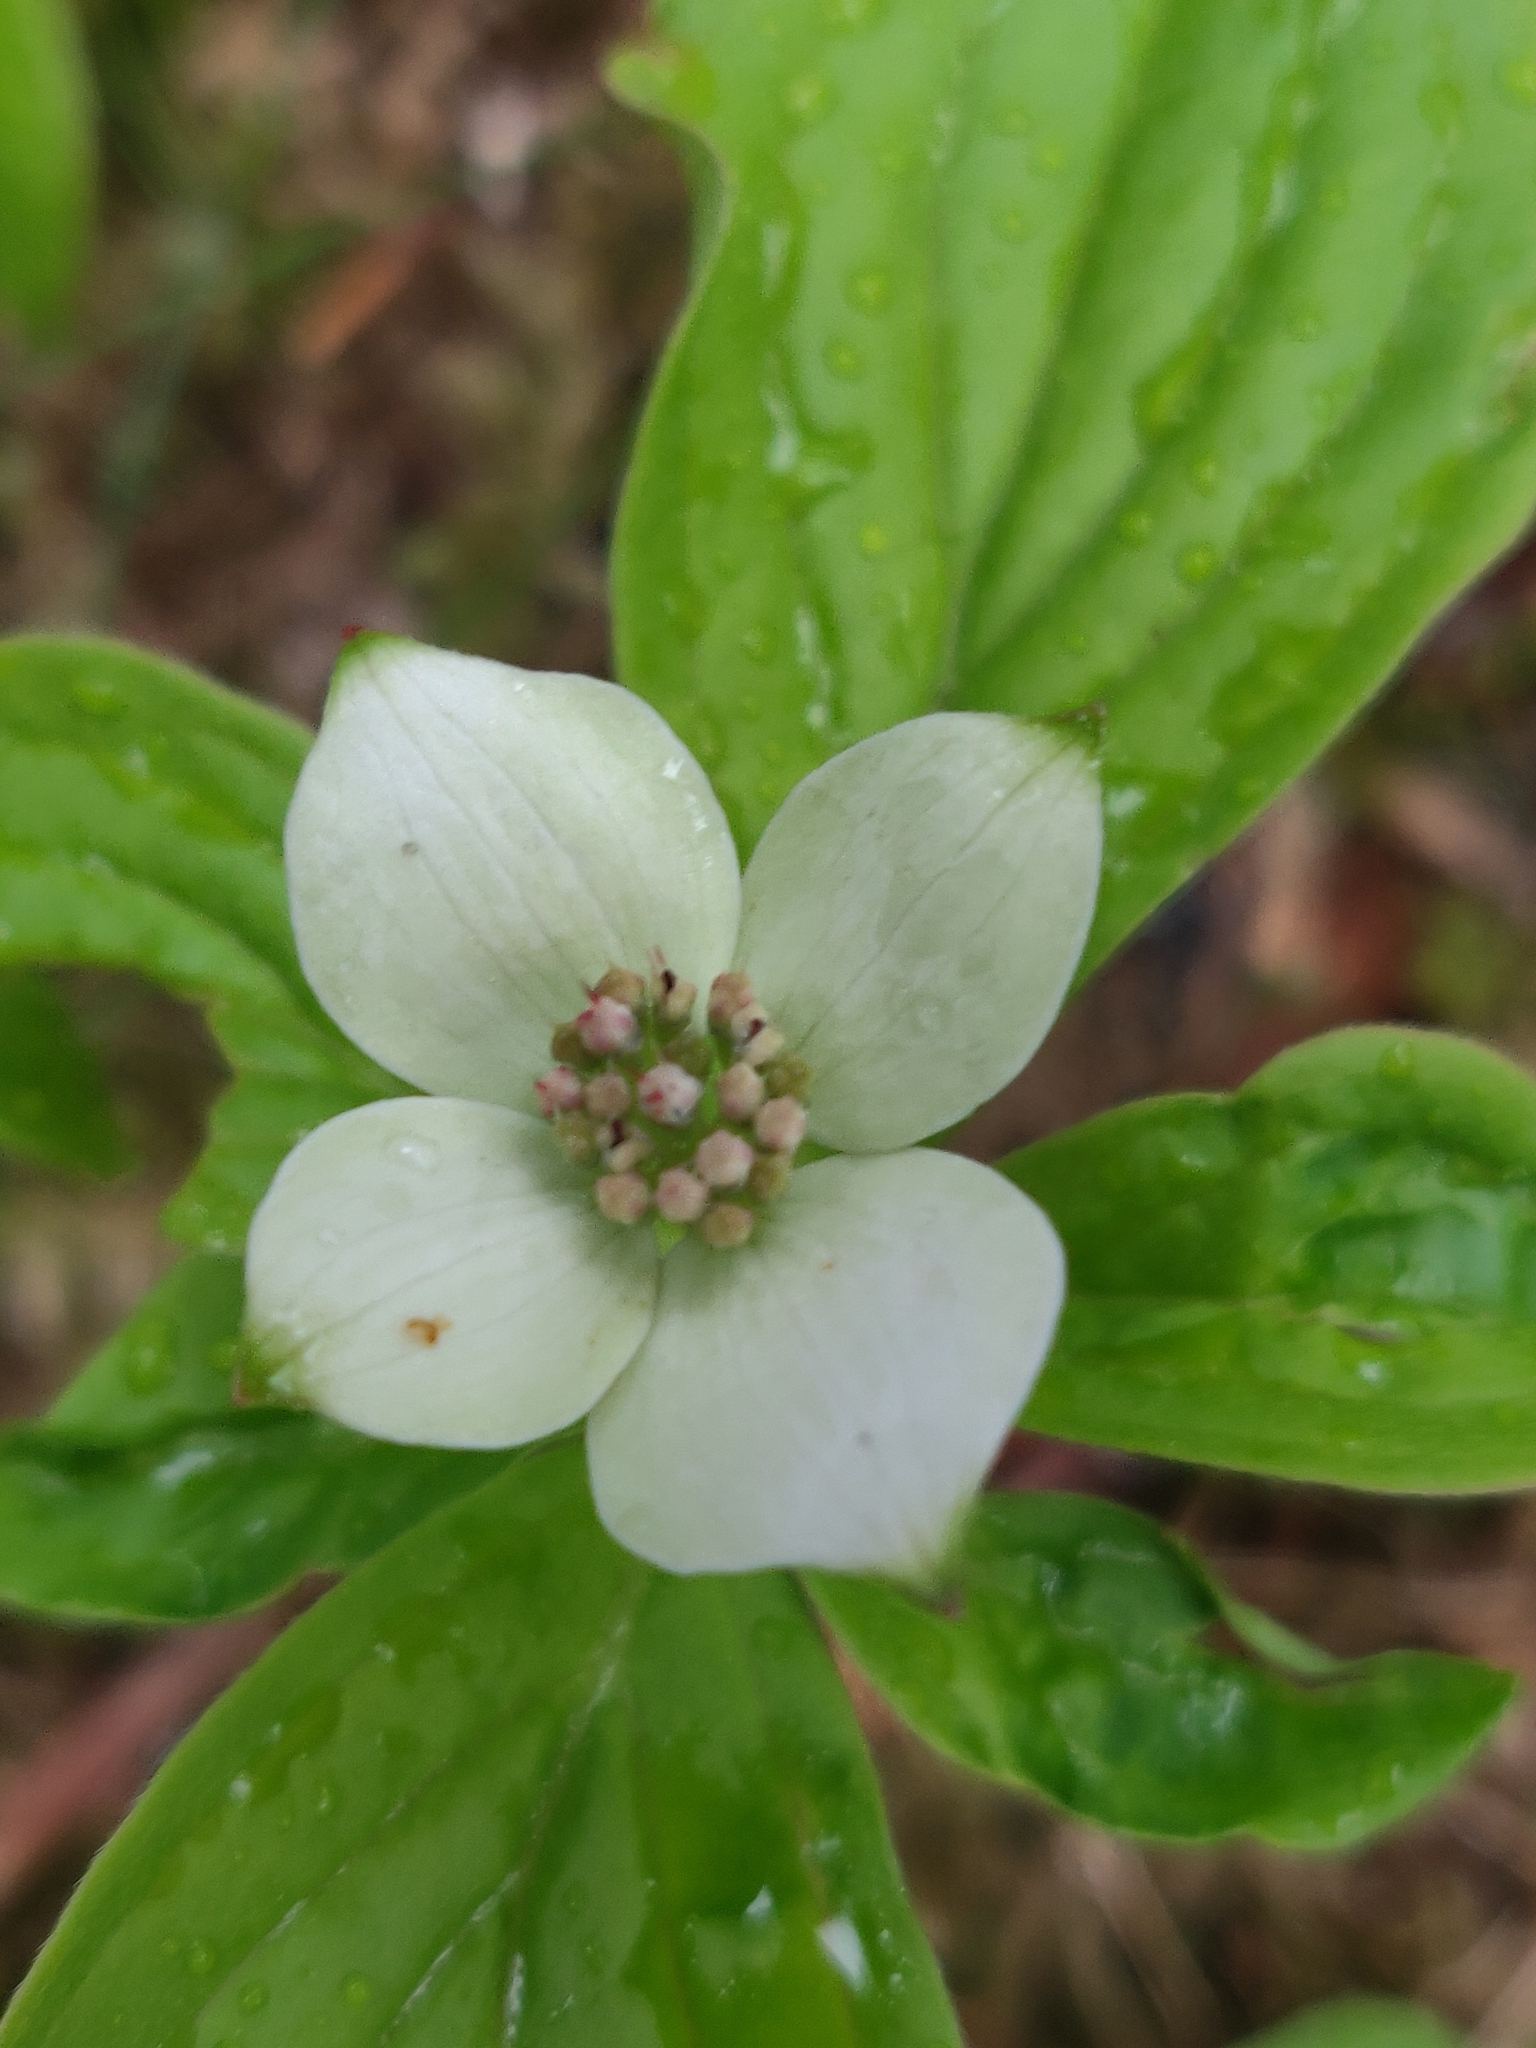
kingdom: Plantae
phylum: Tracheophyta
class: Magnoliopsida
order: Cornales
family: Cornaceae
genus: Cornus
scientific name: Cornus canadensis
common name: Creeping dogwood
